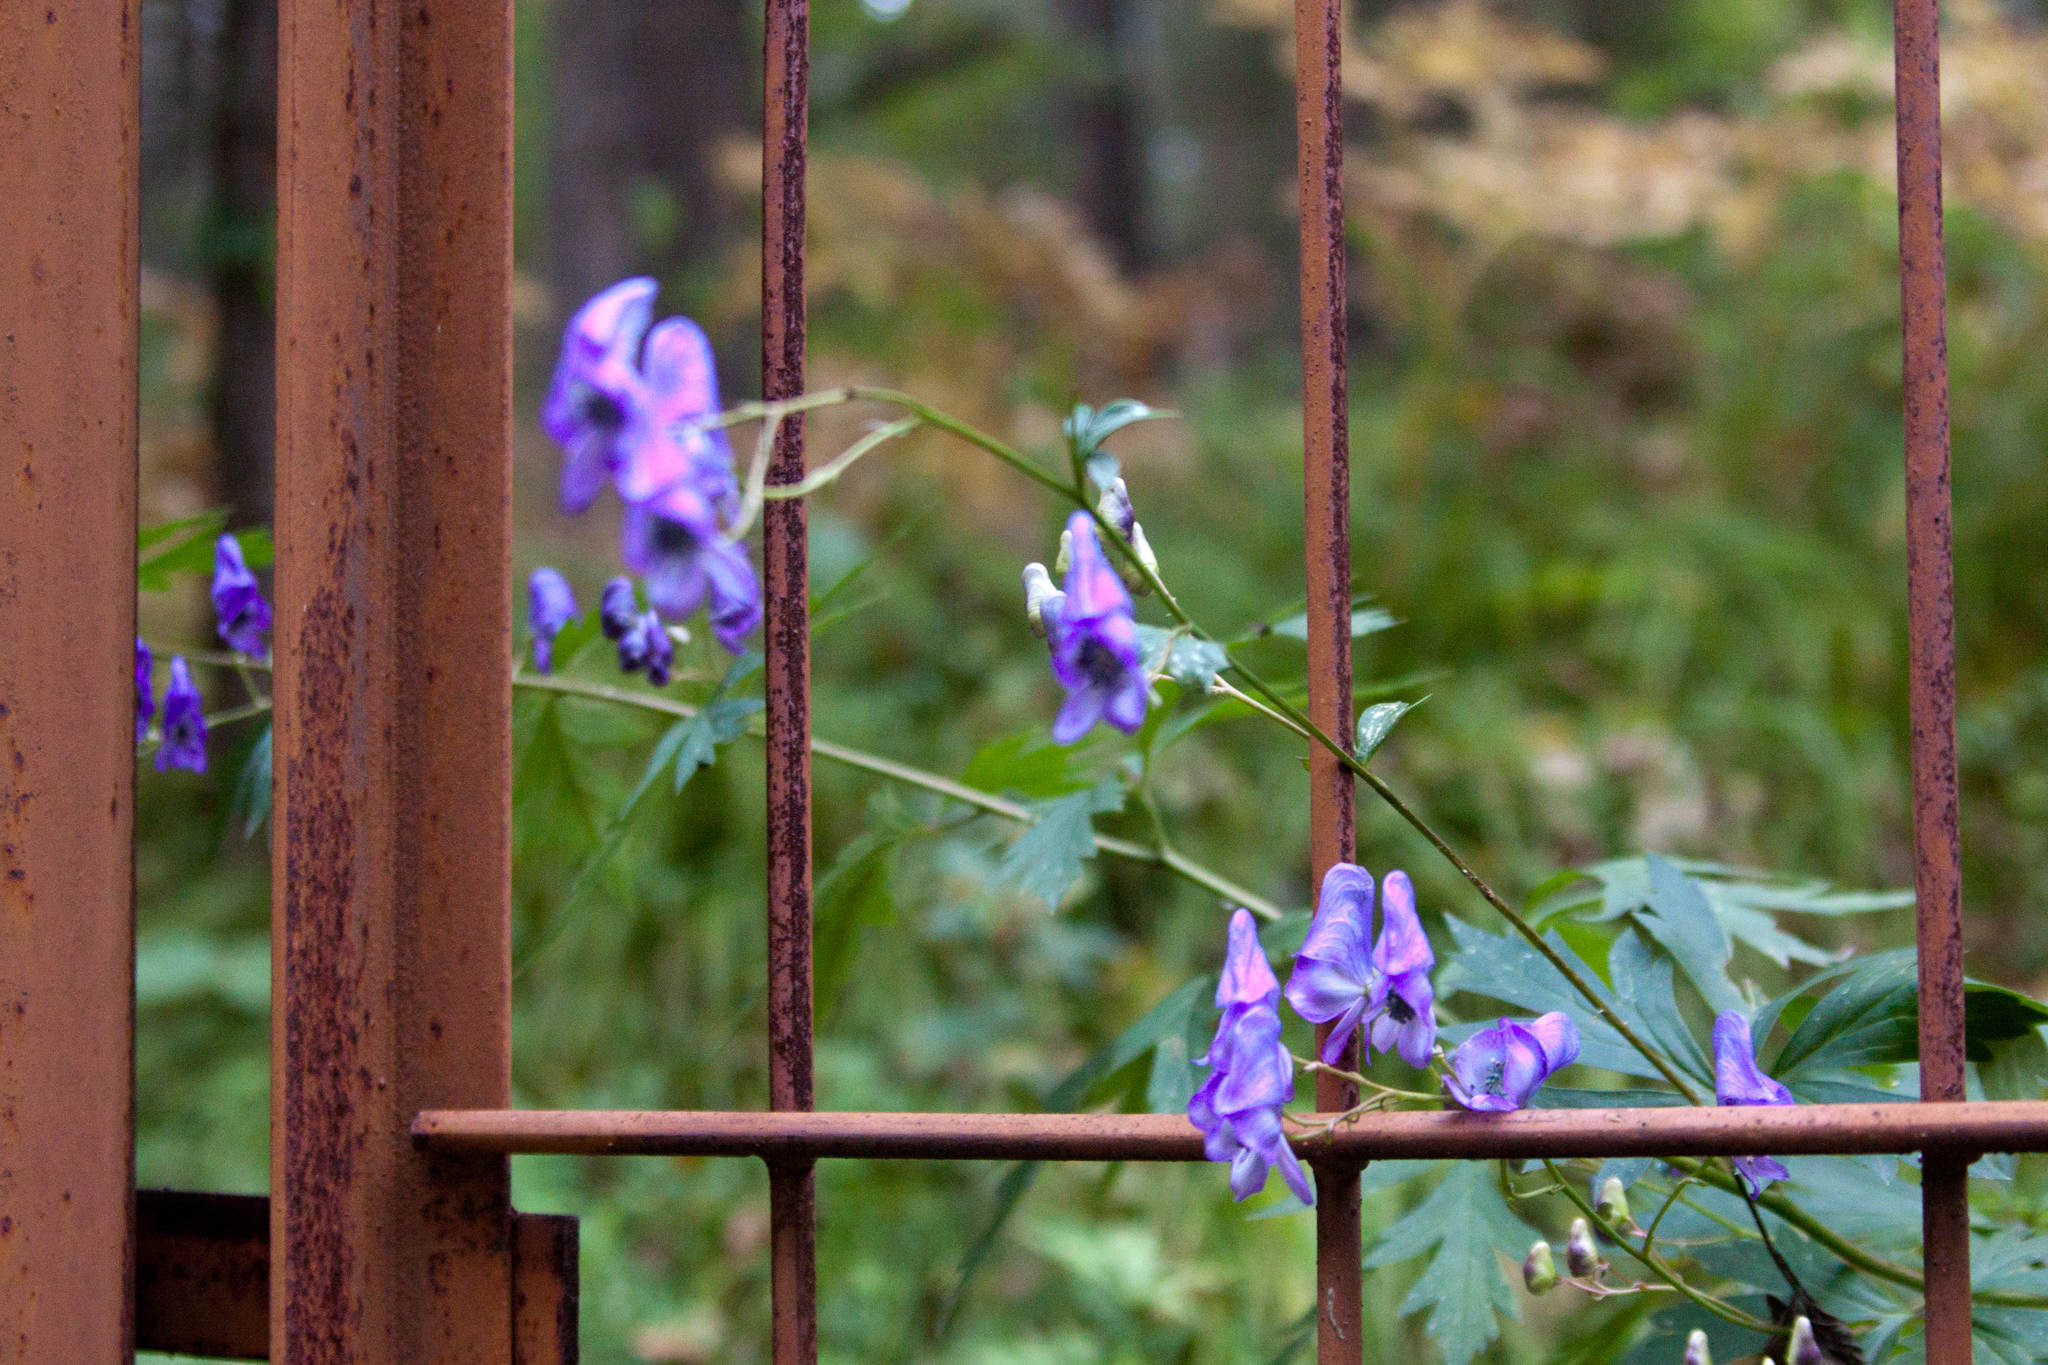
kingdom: Plantae
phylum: Tracheophyta
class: Magnoliopsida
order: Ranunculales
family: Ranunculaceae
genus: Aconitum
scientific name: Aconitum volubile
